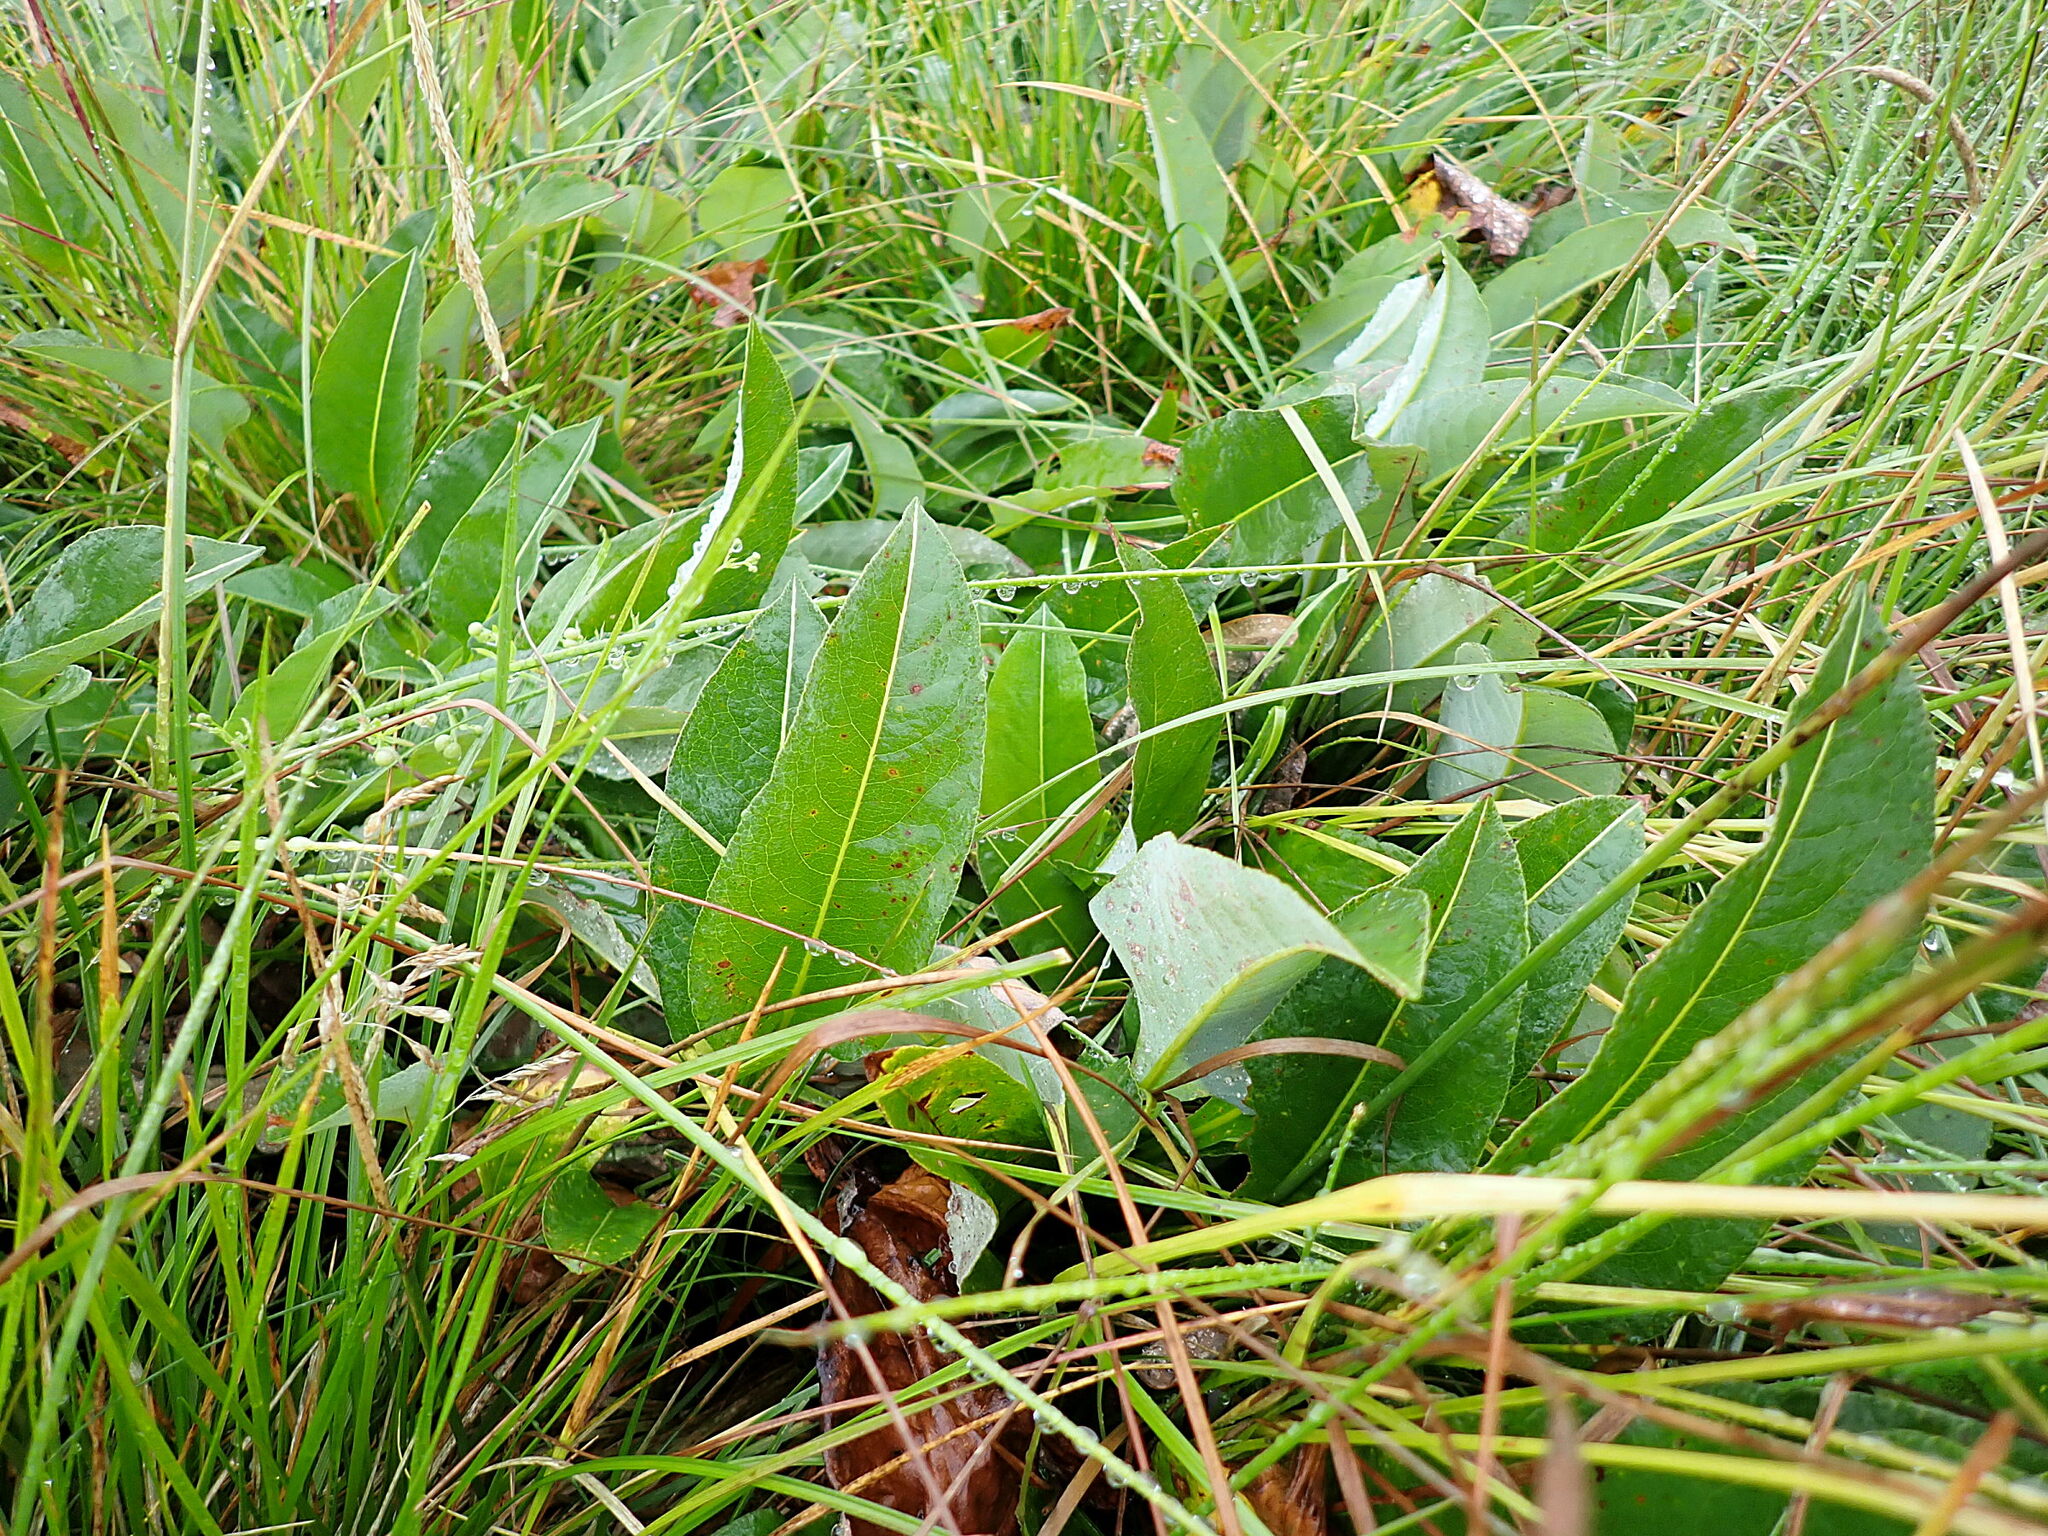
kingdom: Plantae
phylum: Tracheophyta
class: Magnoliopsida
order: Caryophyllales
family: Polygonaceae
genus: Bistorta
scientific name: Bistorta officinalis
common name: Common bistort
